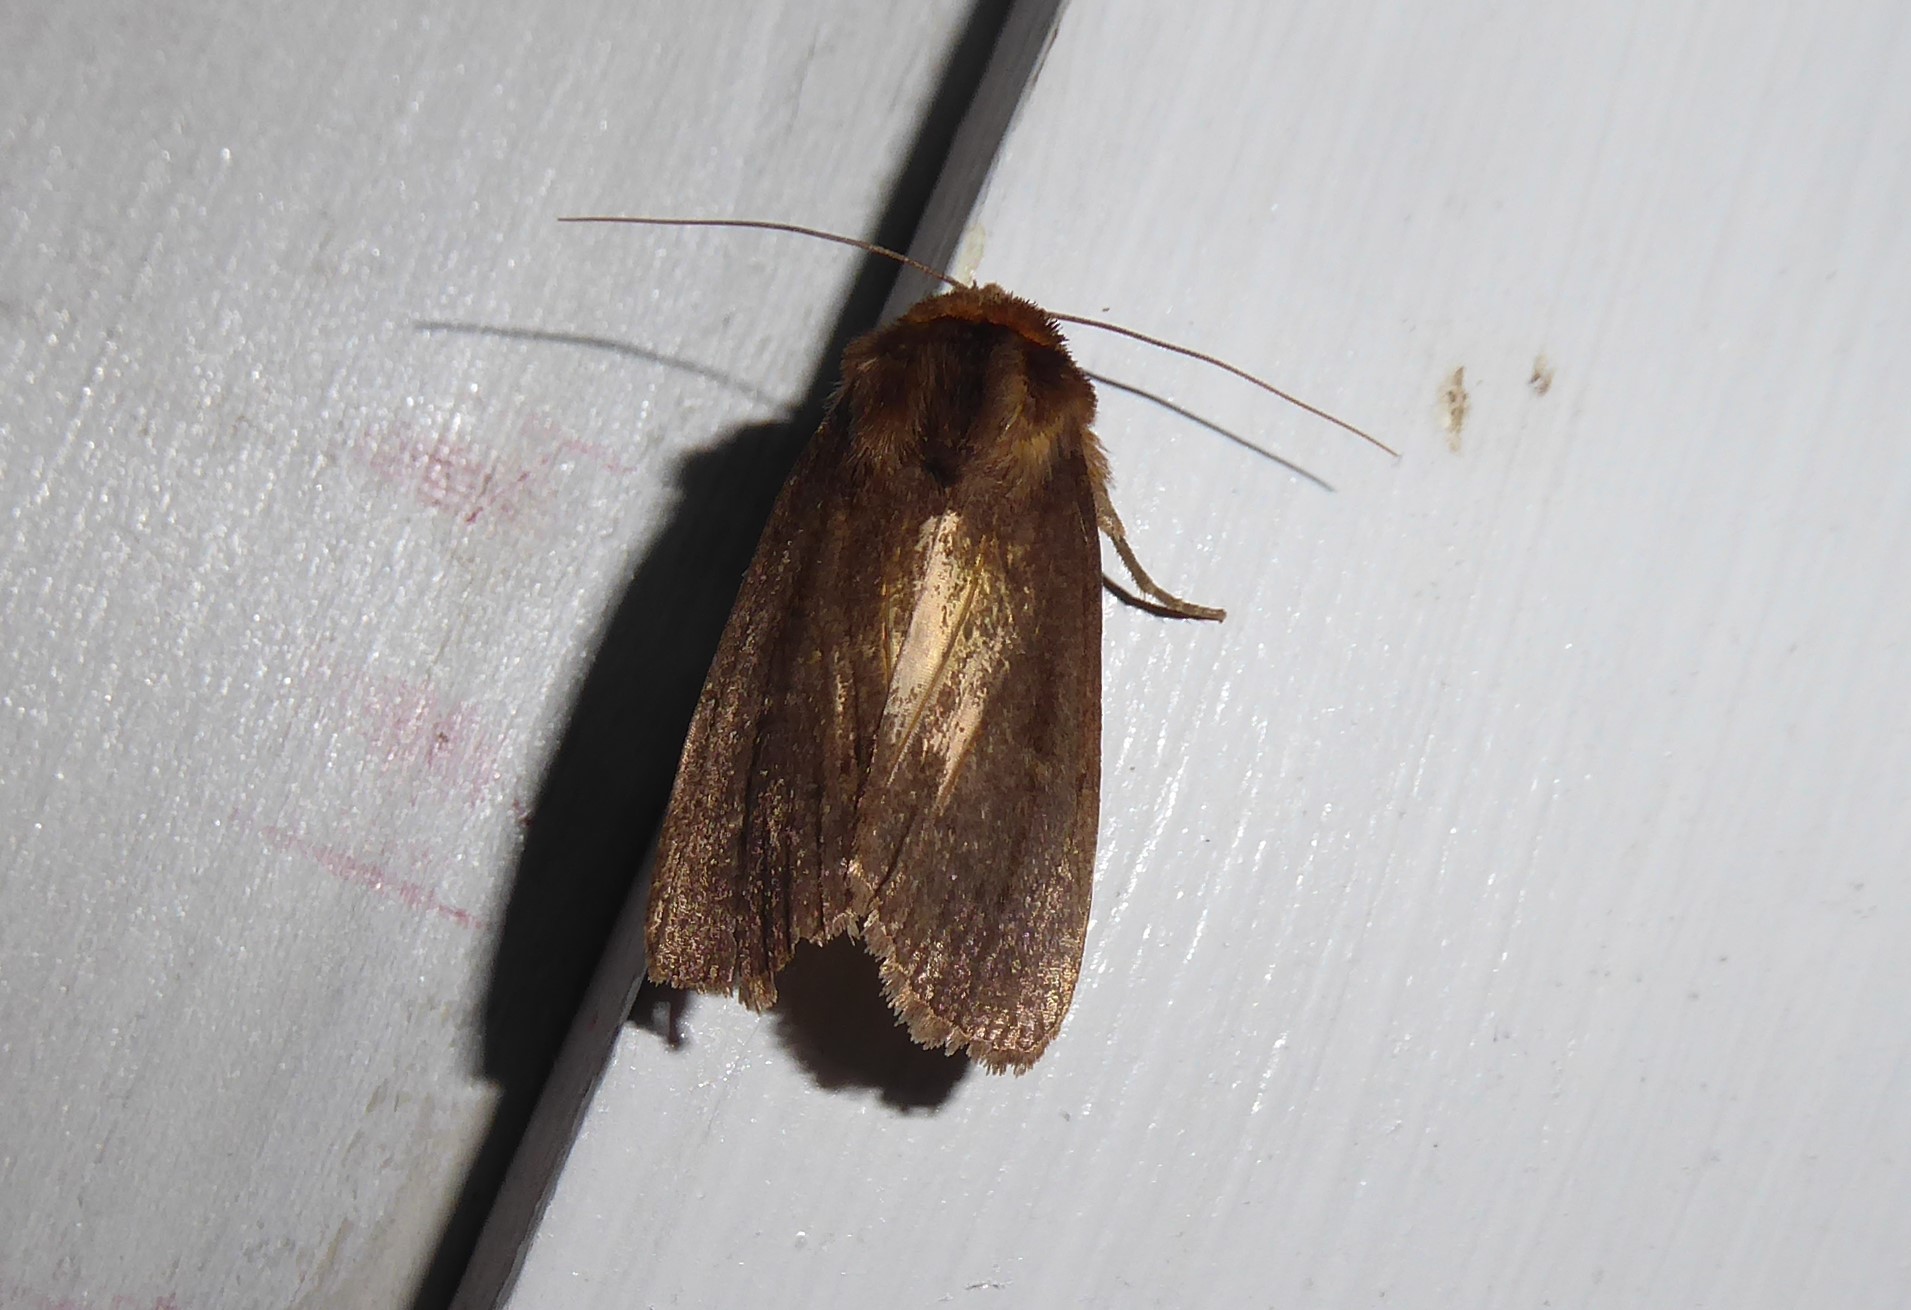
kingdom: Animalia
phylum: Arthropoda
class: Insecta
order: Lepidoptera
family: Noctuidae
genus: Bityla
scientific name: Bityla defigurata
